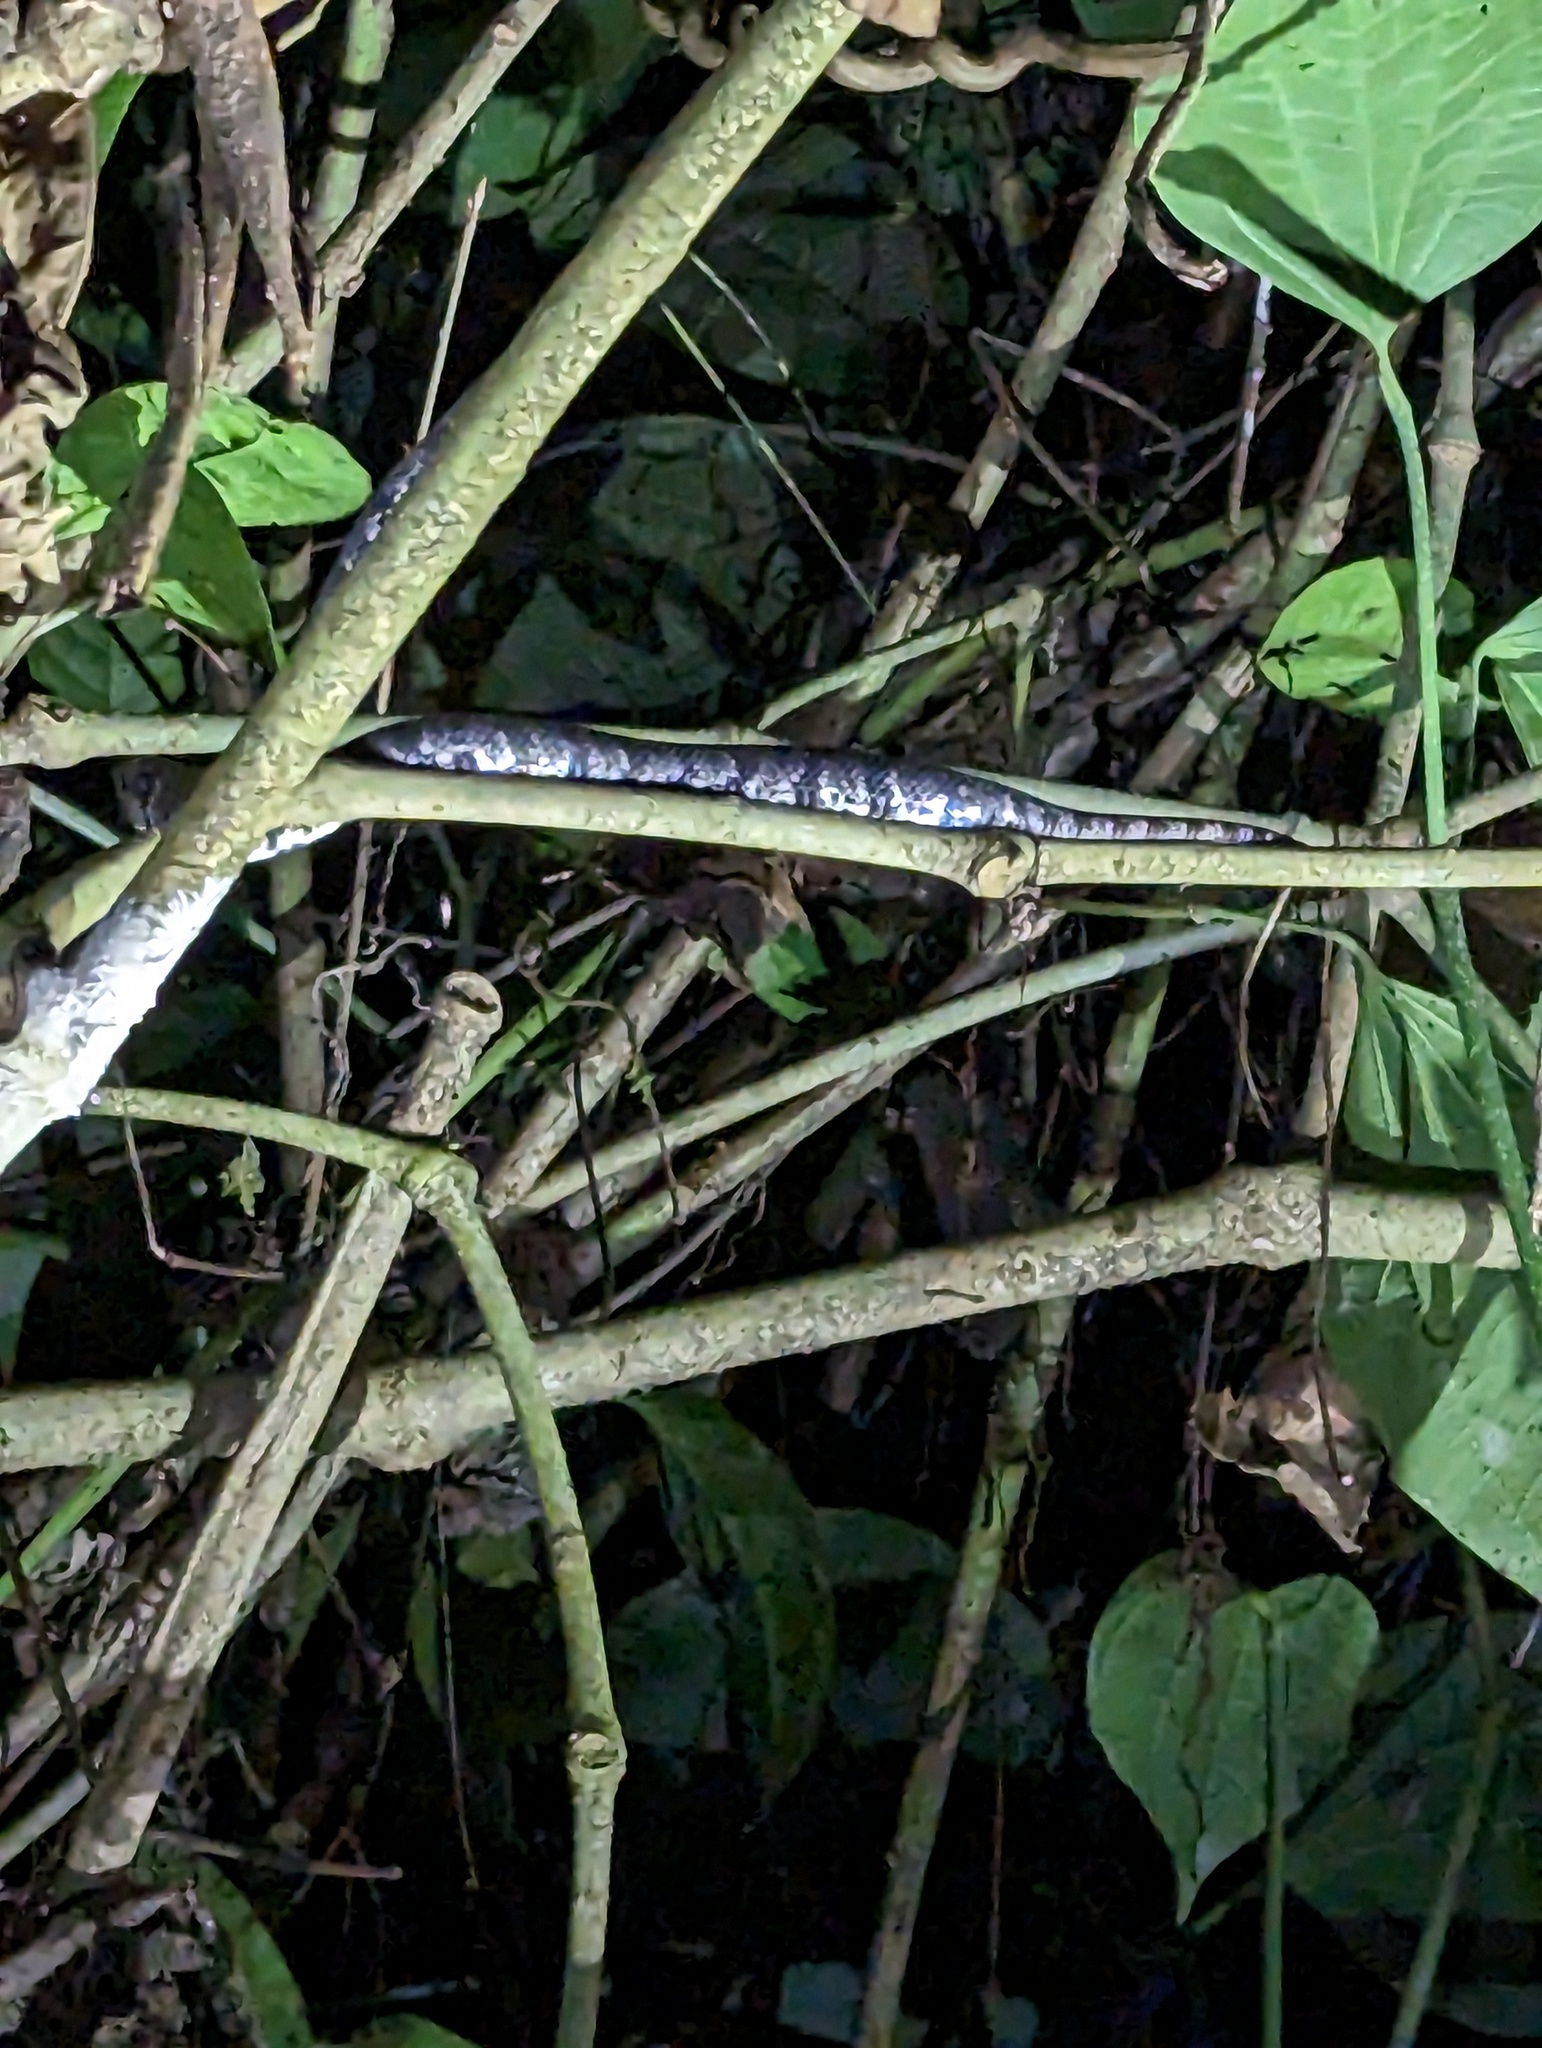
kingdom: Animalia
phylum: Chordata
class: Squamata
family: Colubridae
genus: Sibon
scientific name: Sibon nebulatus
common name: Cloudy snail-eating snake
